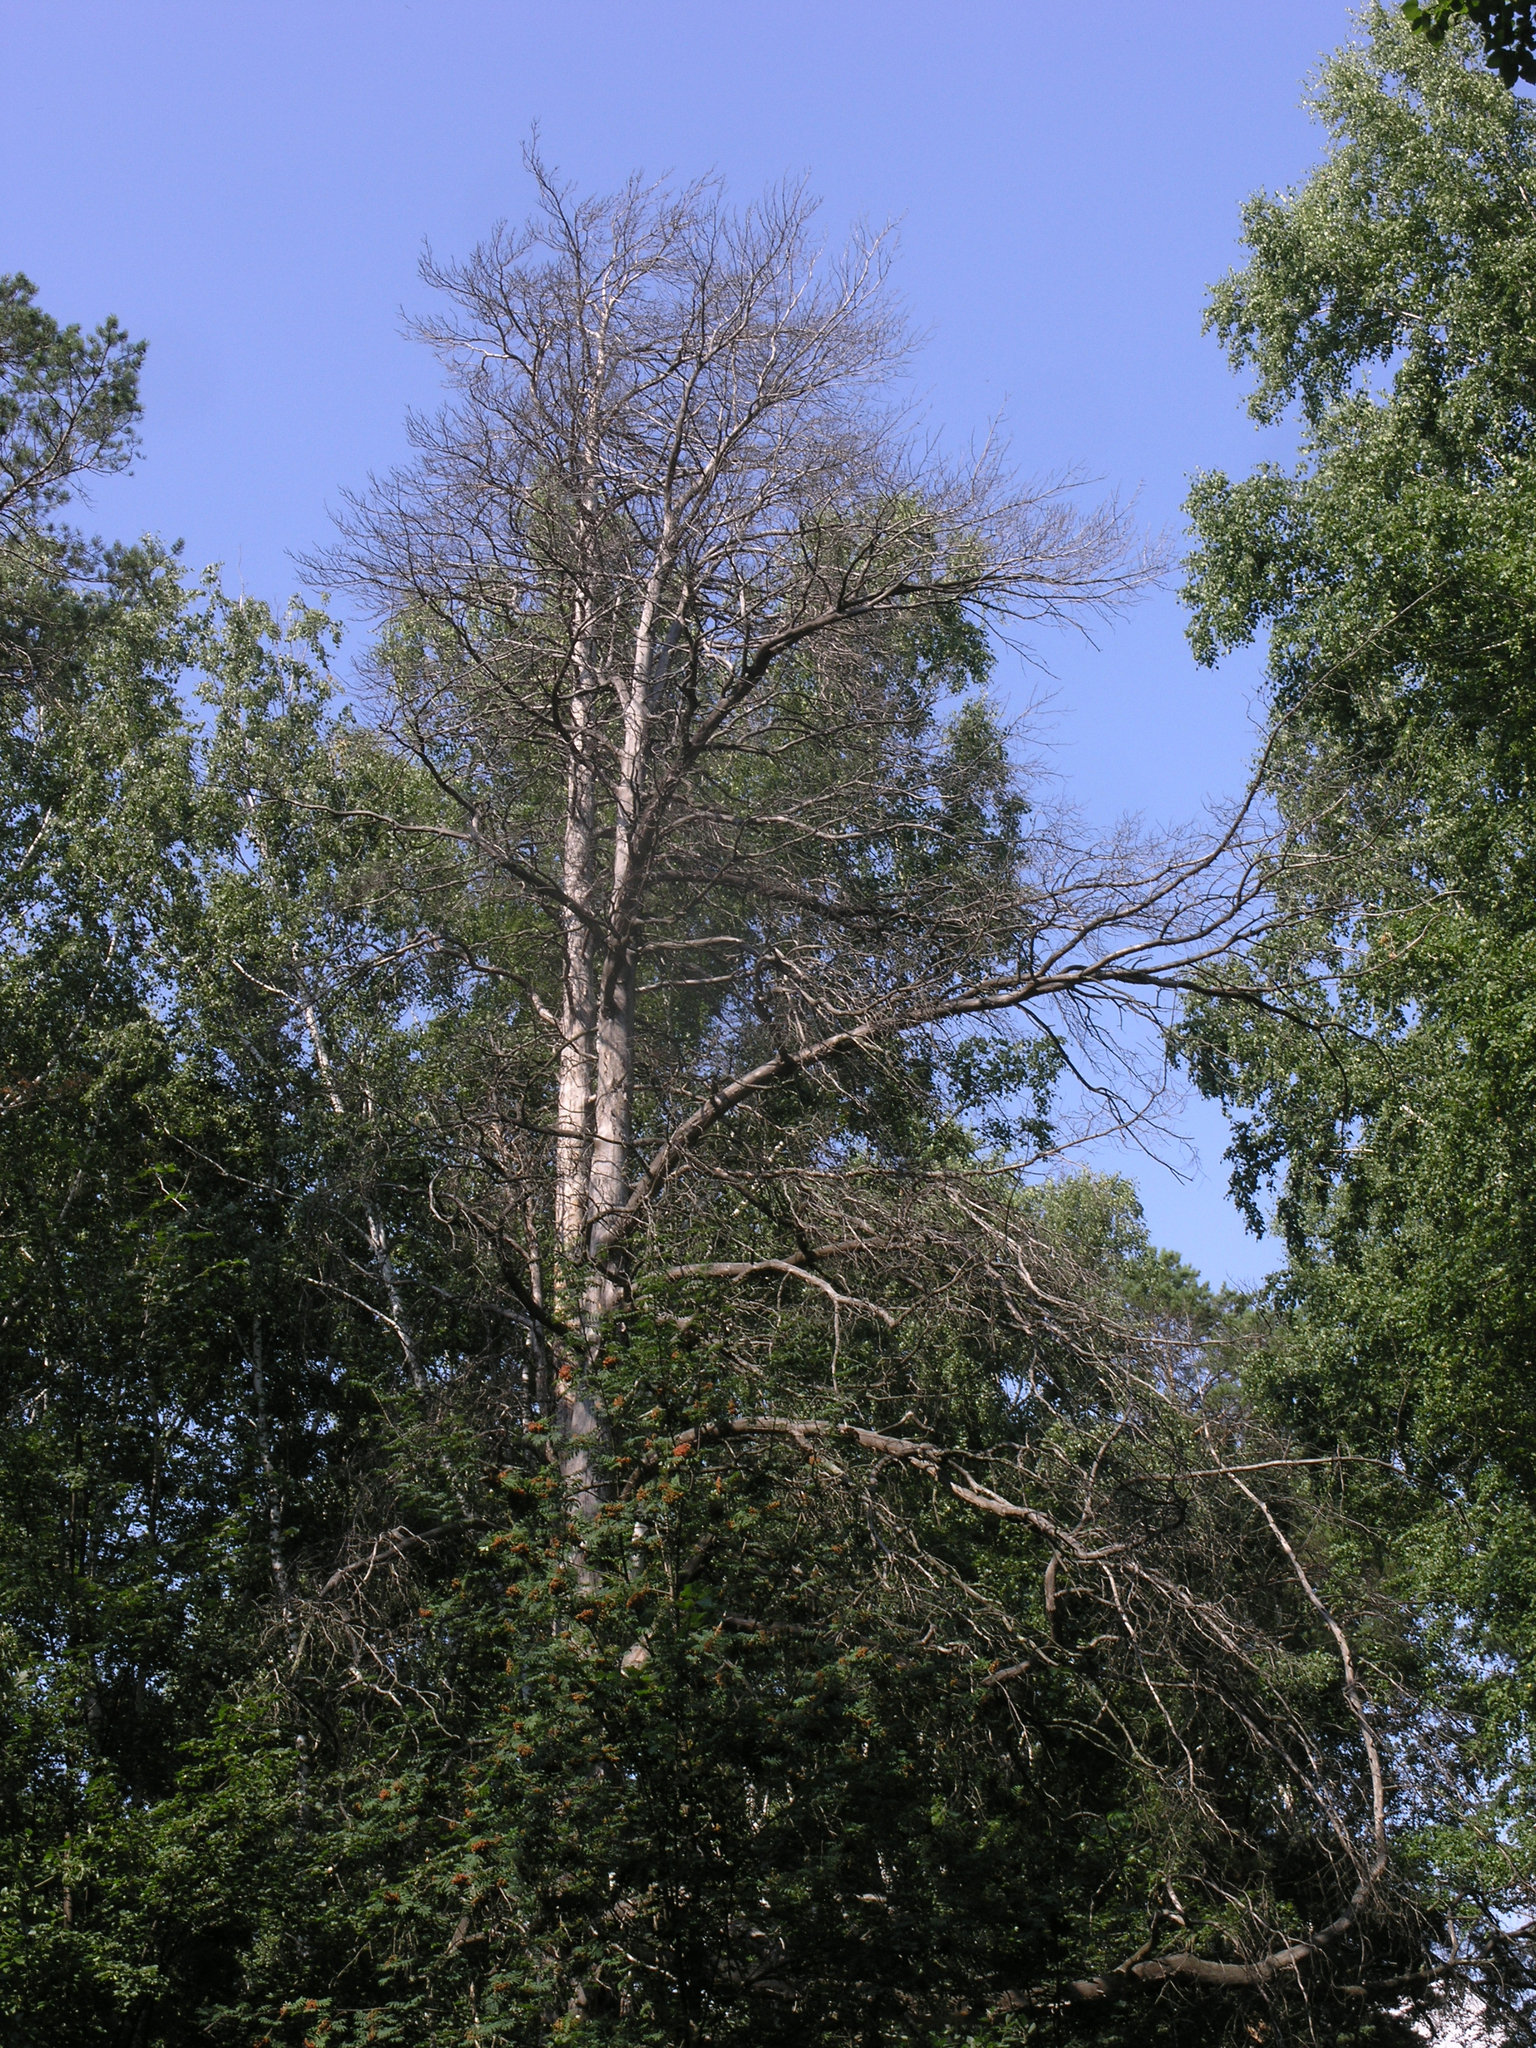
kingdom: Plantae
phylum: Tracheophyta
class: Pinopsida
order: Pinales
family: Pinaceae
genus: Pinus
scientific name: Pinus sylvestris
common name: Scots pine
